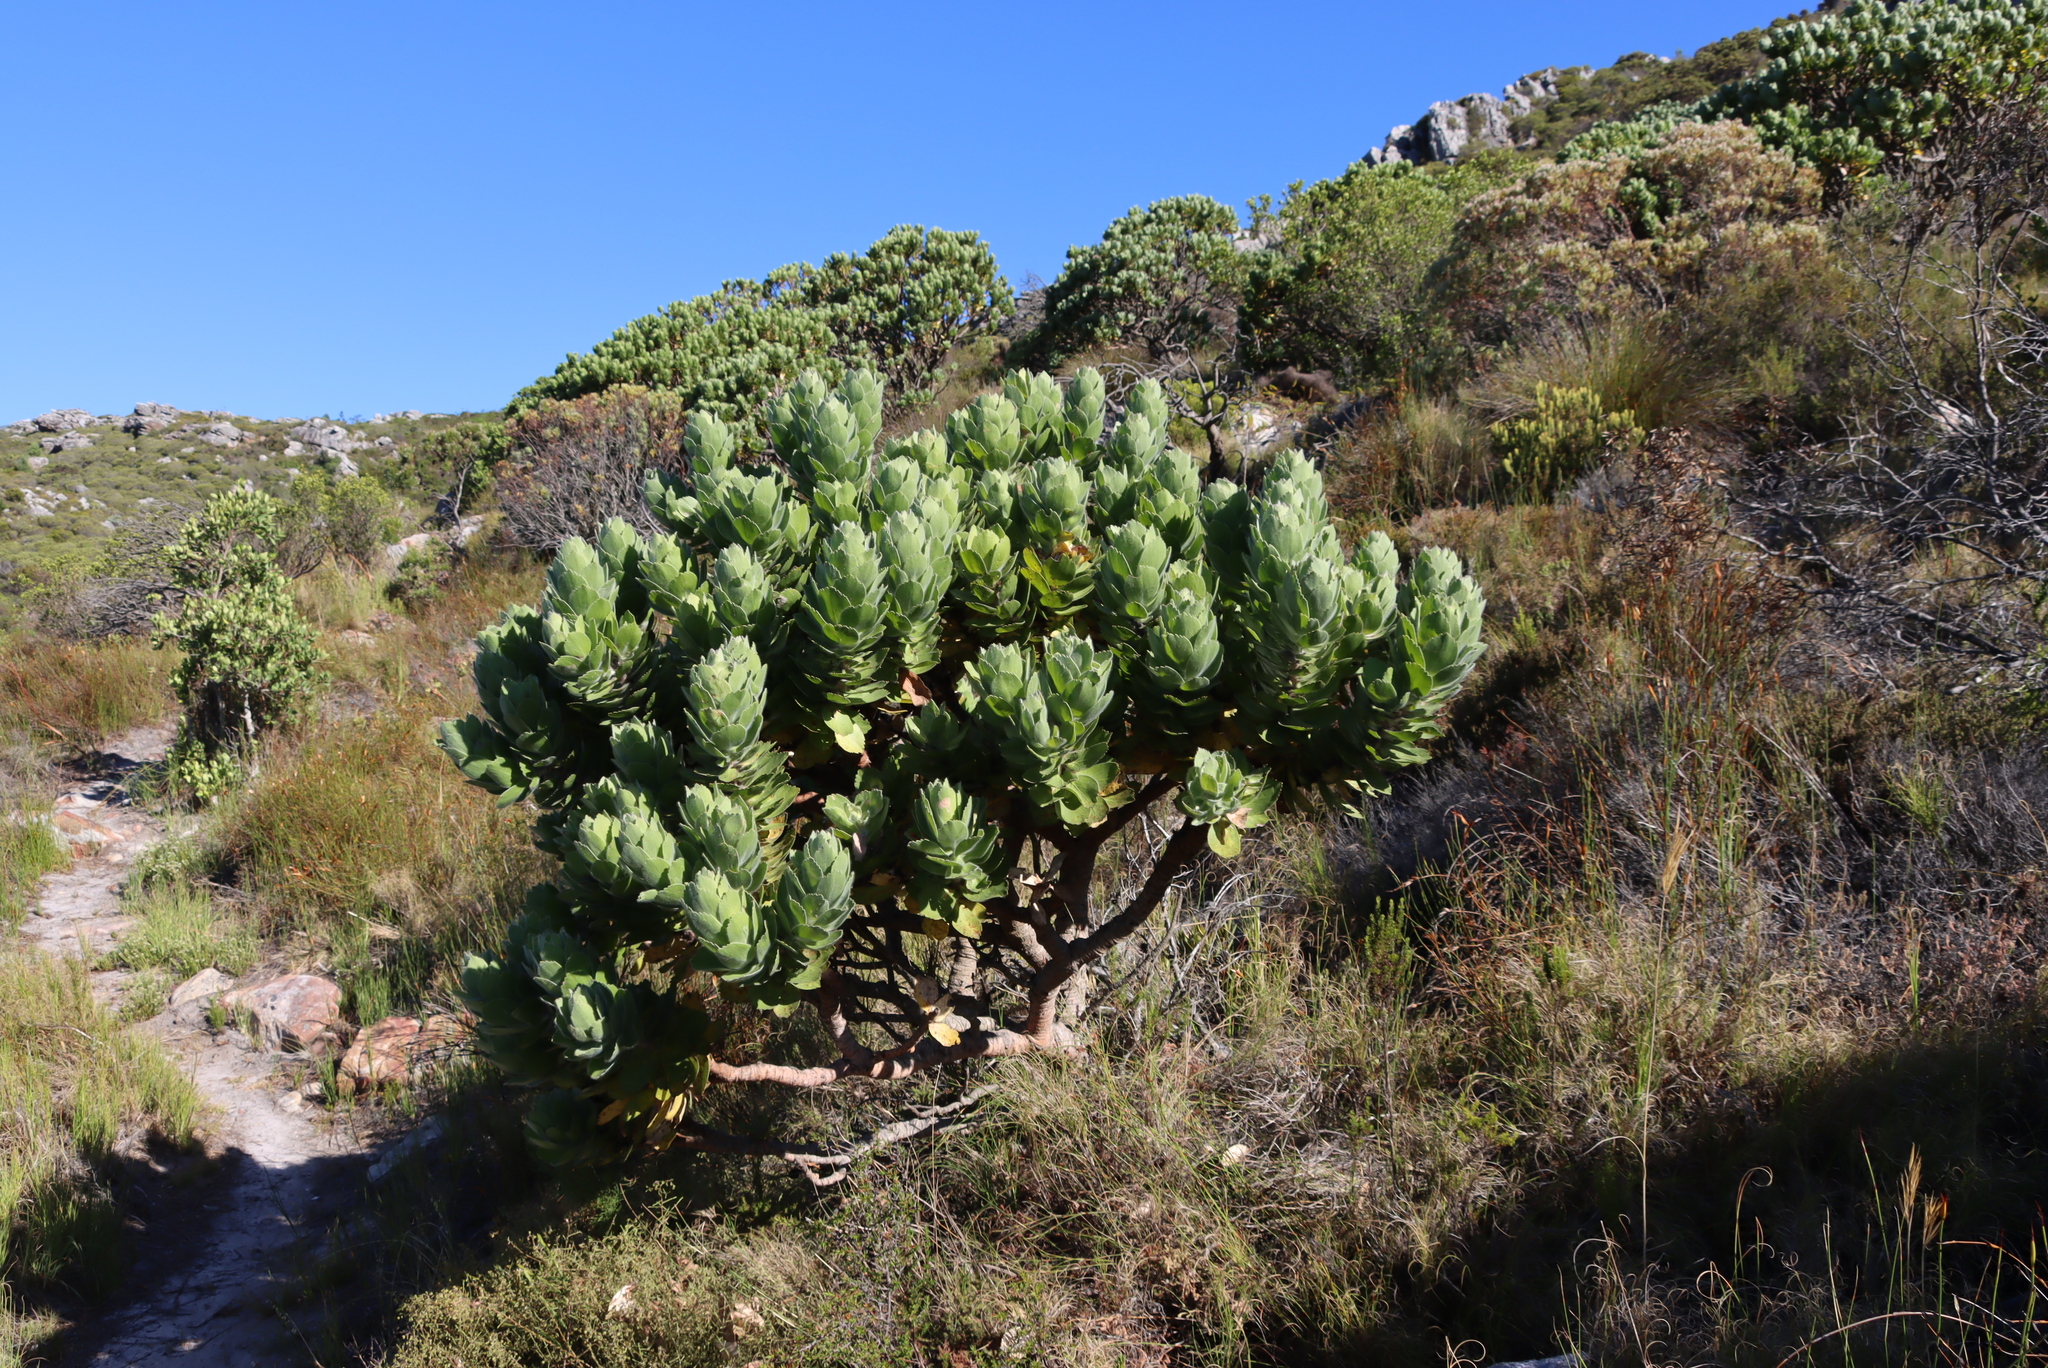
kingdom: Plantae
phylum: Tracheophyta
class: Magnoliopsida
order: Proteales
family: Proteaceae
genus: Leucospermum
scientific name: Leucospermum conocarpodendron
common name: Tree pincushion
